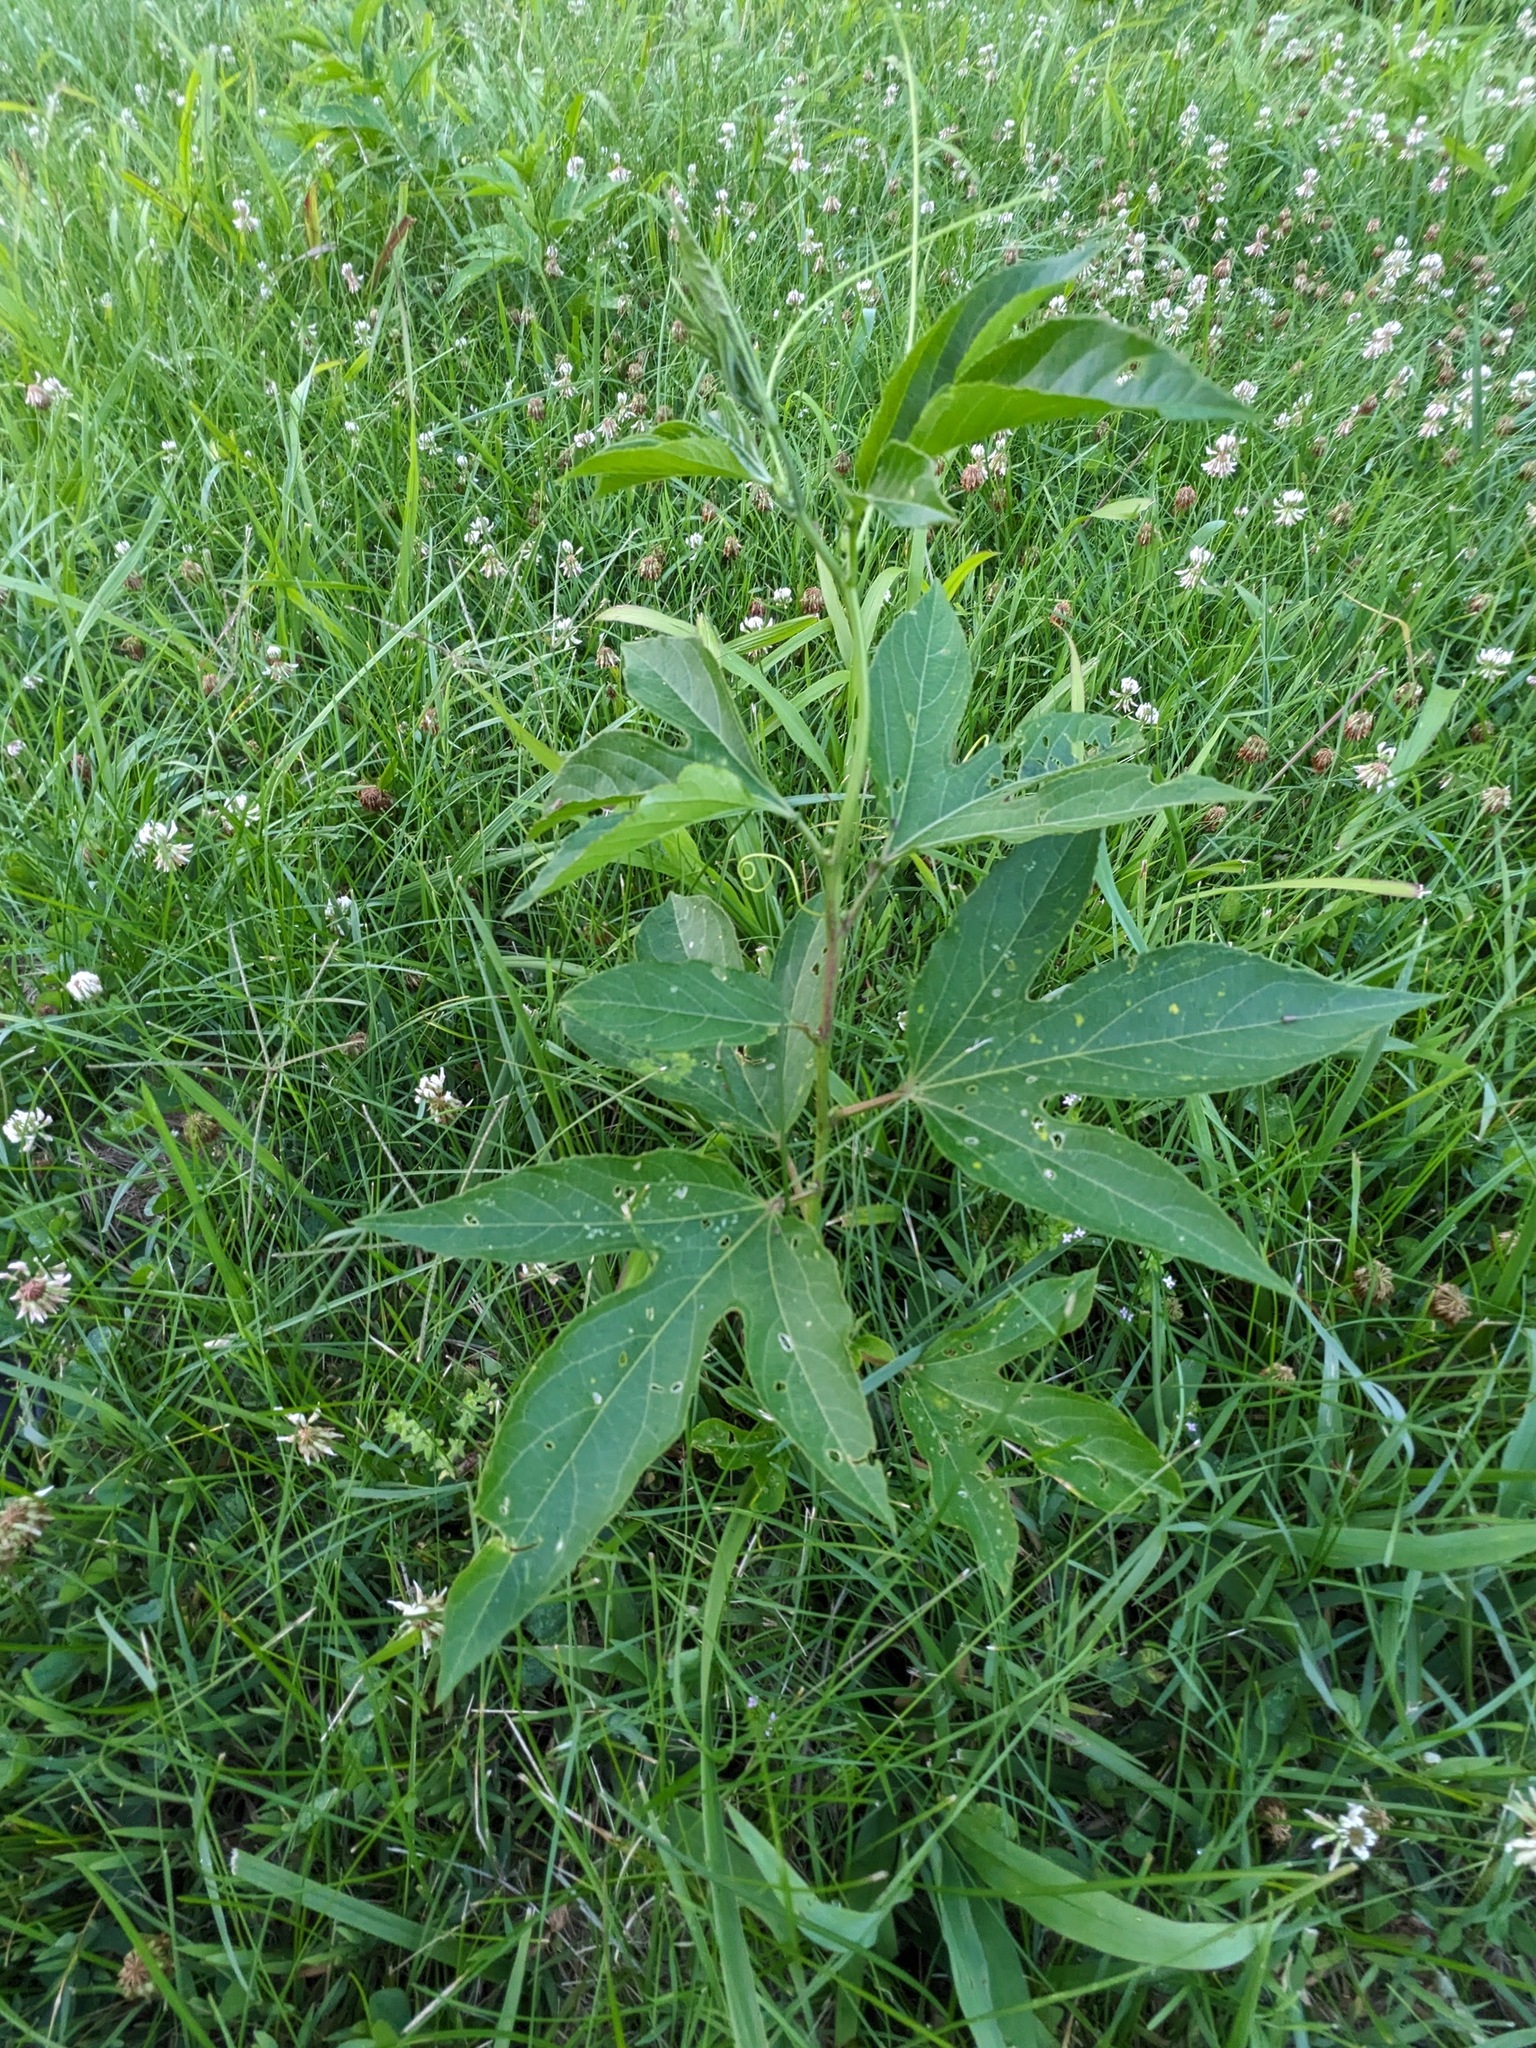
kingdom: Plantae
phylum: Tracheophyta
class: Magnoliopsida
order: Malpighiales
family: Passifloraceae
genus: Passiflora
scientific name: Passiflora incarnata
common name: Apricot-vine
